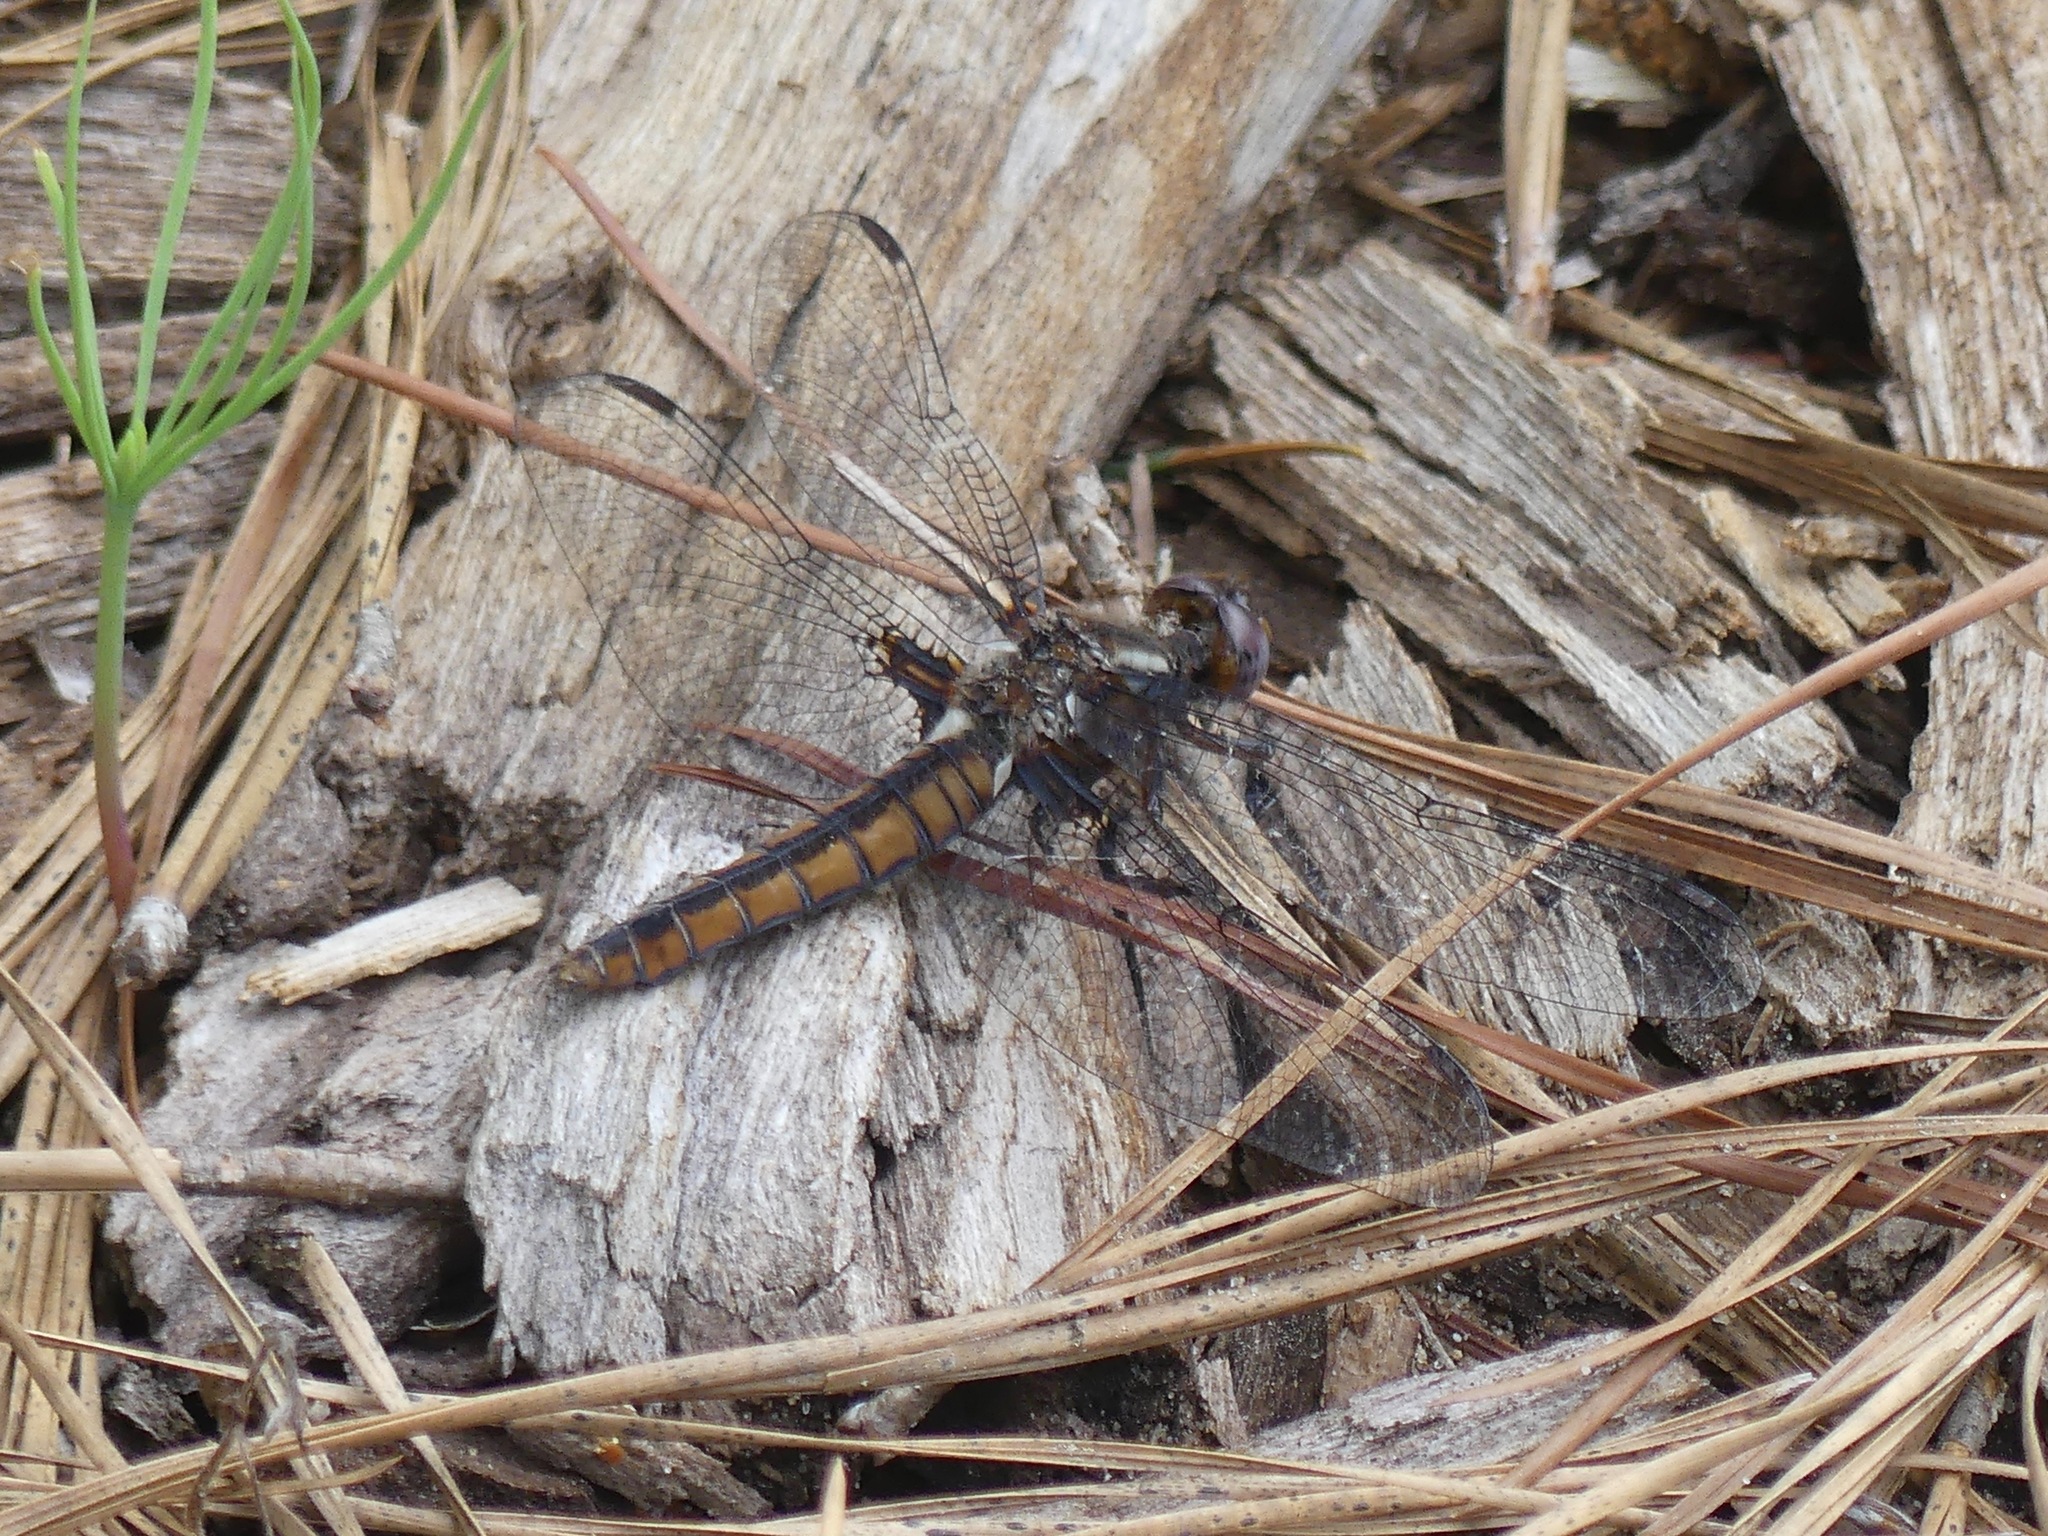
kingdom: Animalia
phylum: Arthropoda
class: Insecta
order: Odonata
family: Libellulidae
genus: Ladona
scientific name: Ladona deplanata
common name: Blue corporal
